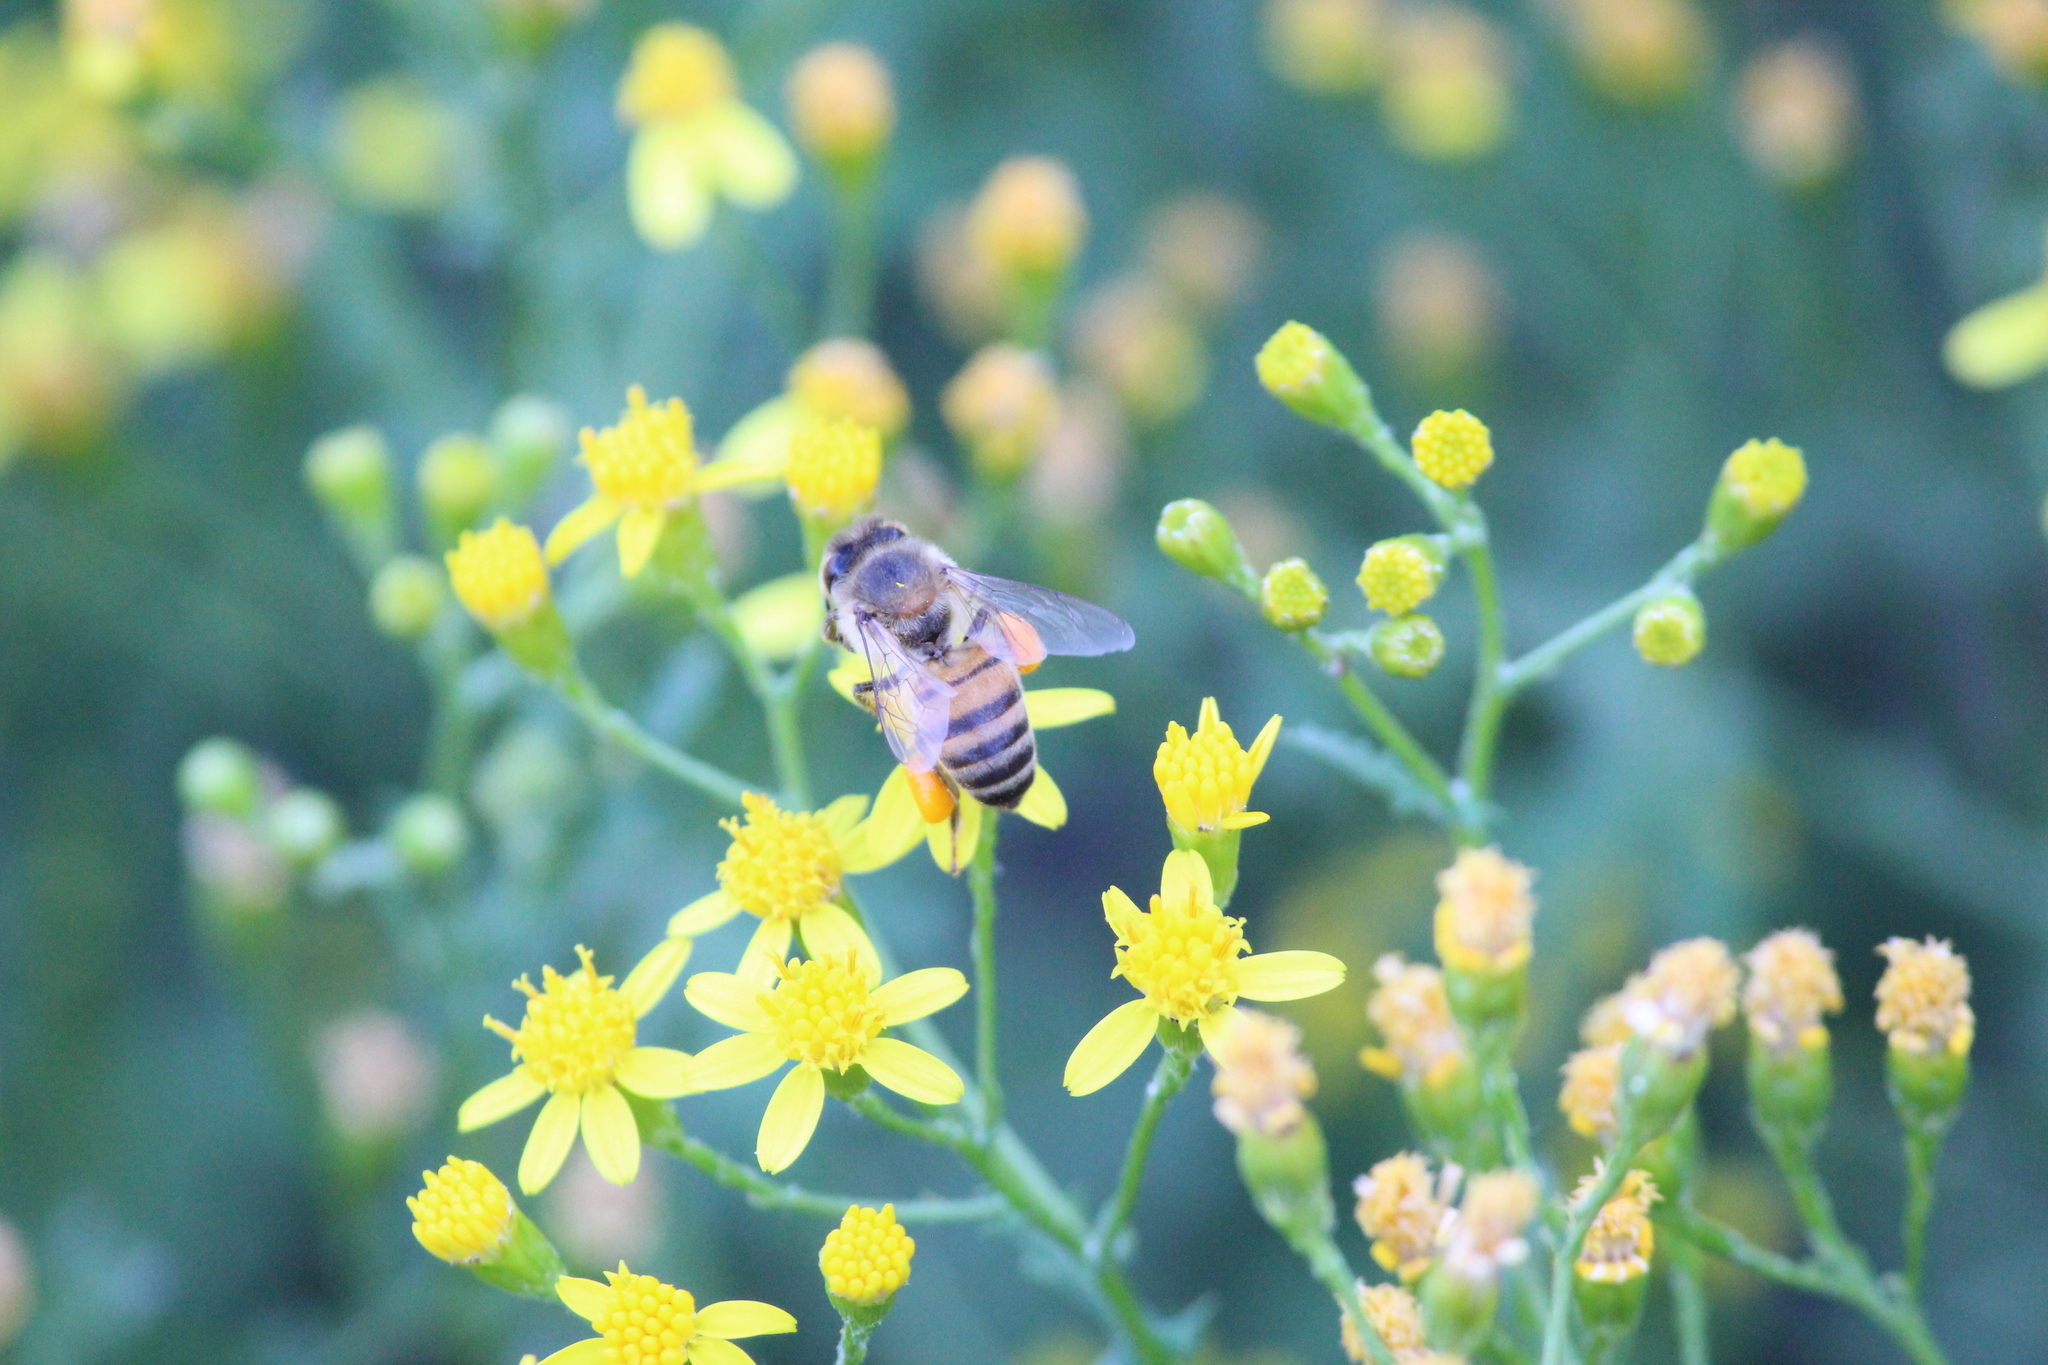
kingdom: Animalia
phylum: Arthropoda
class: Insecta
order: Hymenoptera
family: Apidae
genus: Apis
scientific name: Apis mellifera
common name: Honey bee
